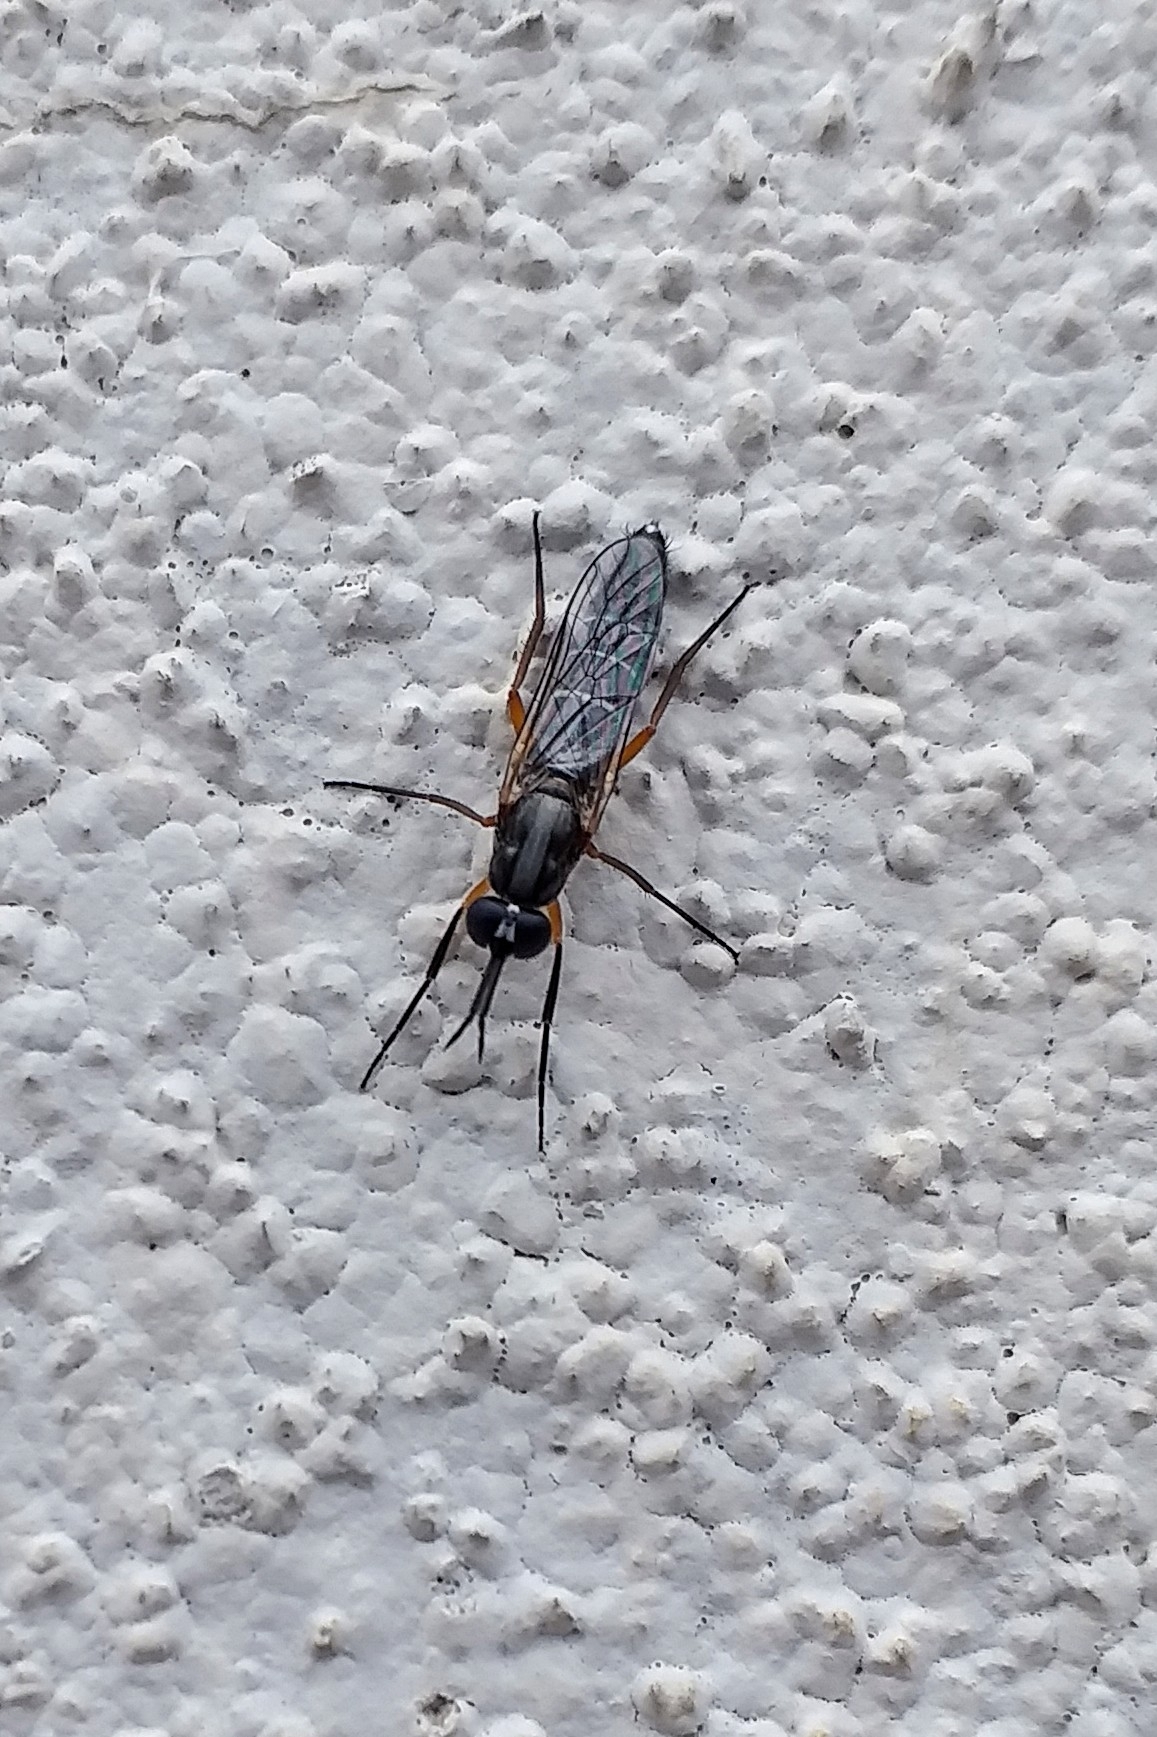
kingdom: Animalia
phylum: Arthropoda
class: Insecta
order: Diptera
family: Therevidae
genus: Phycus
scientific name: Phycus brunneus
